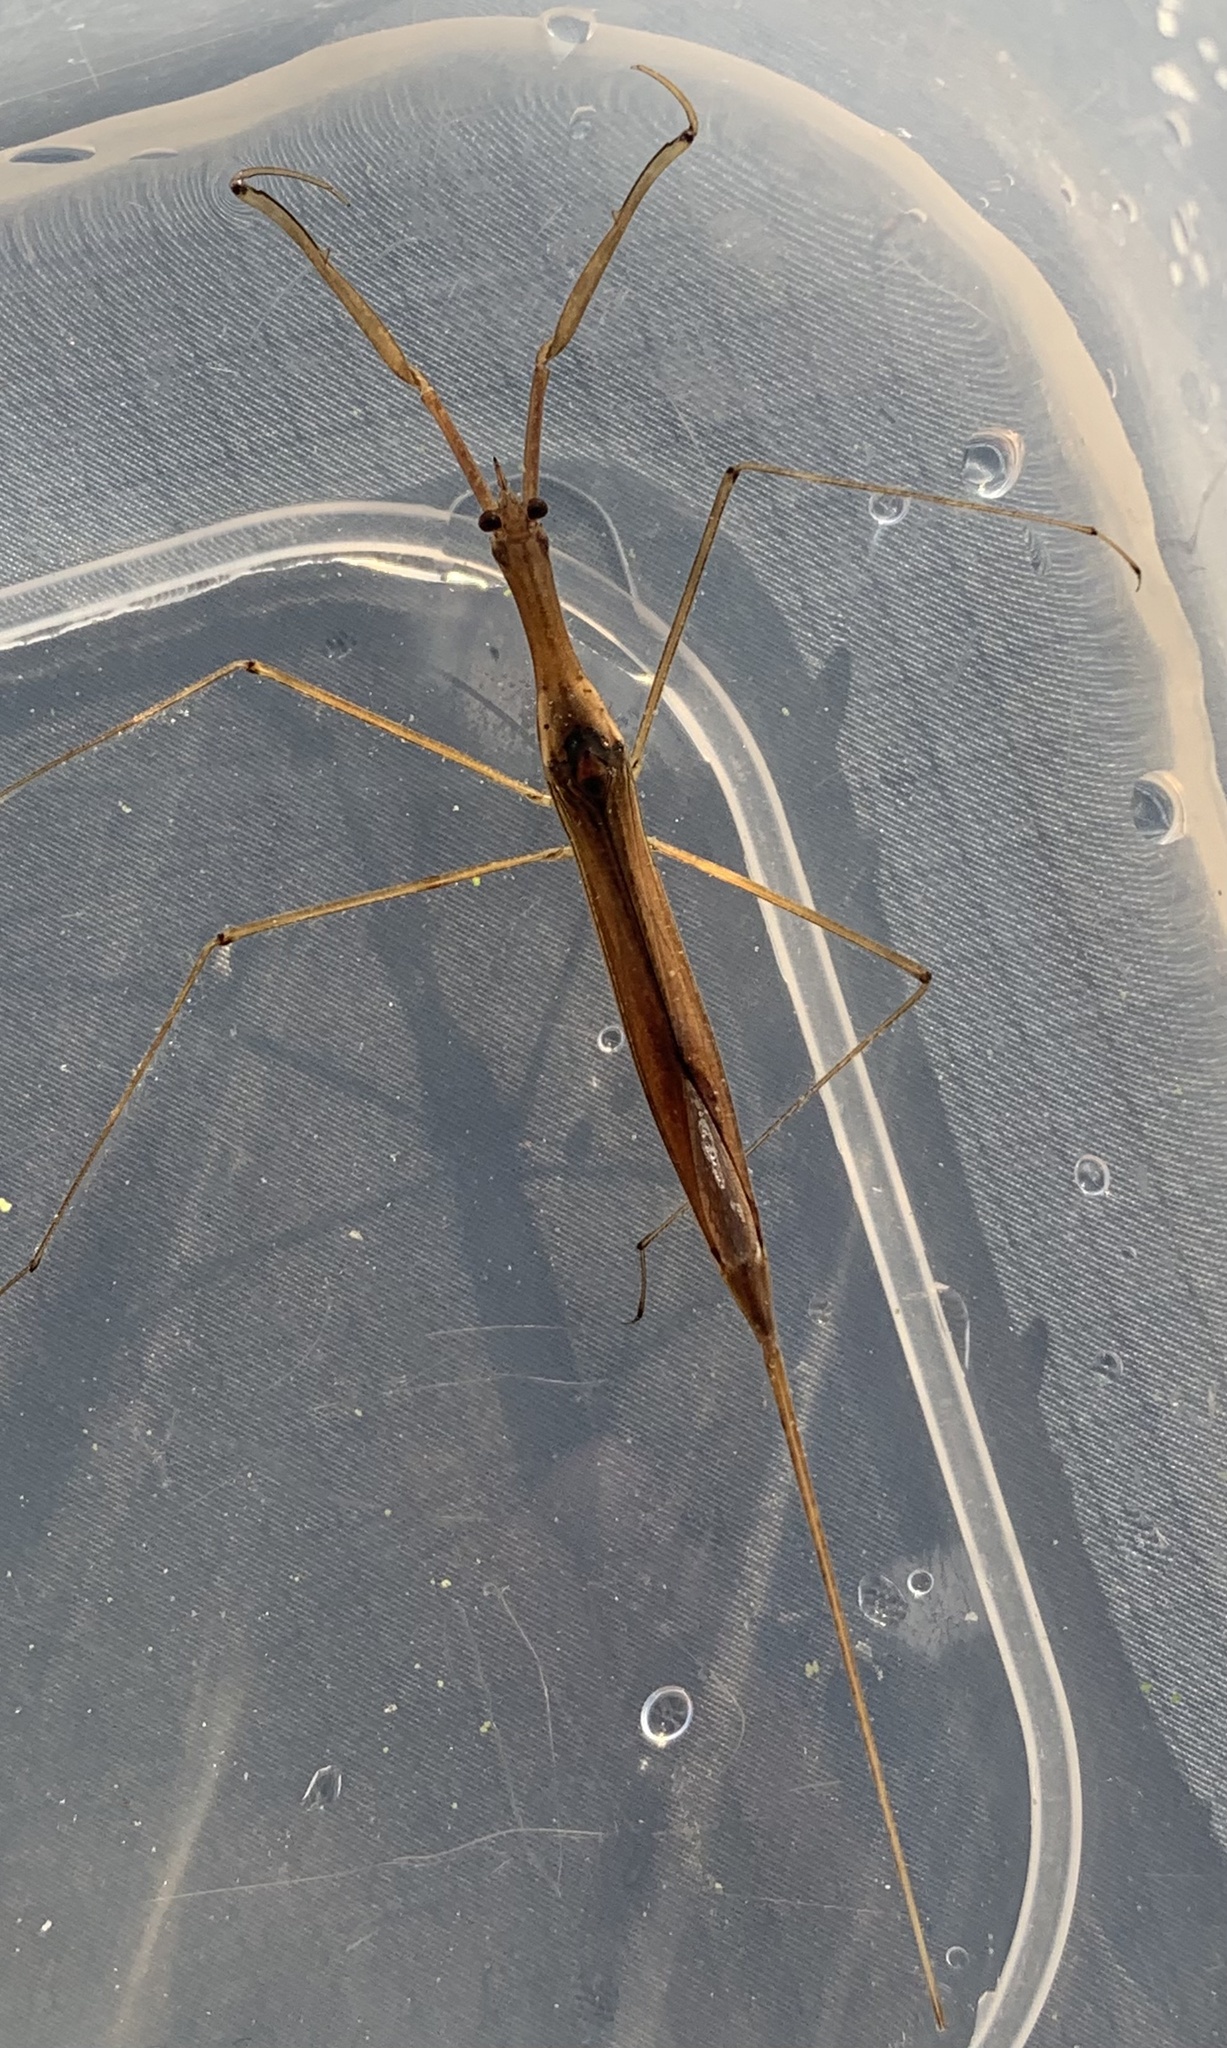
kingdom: Animalia
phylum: Arthropoda
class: Insecta
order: Hemiptera
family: Nepidae
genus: Ranatra
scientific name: Ranatra fusca
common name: Brown waterscorpion
